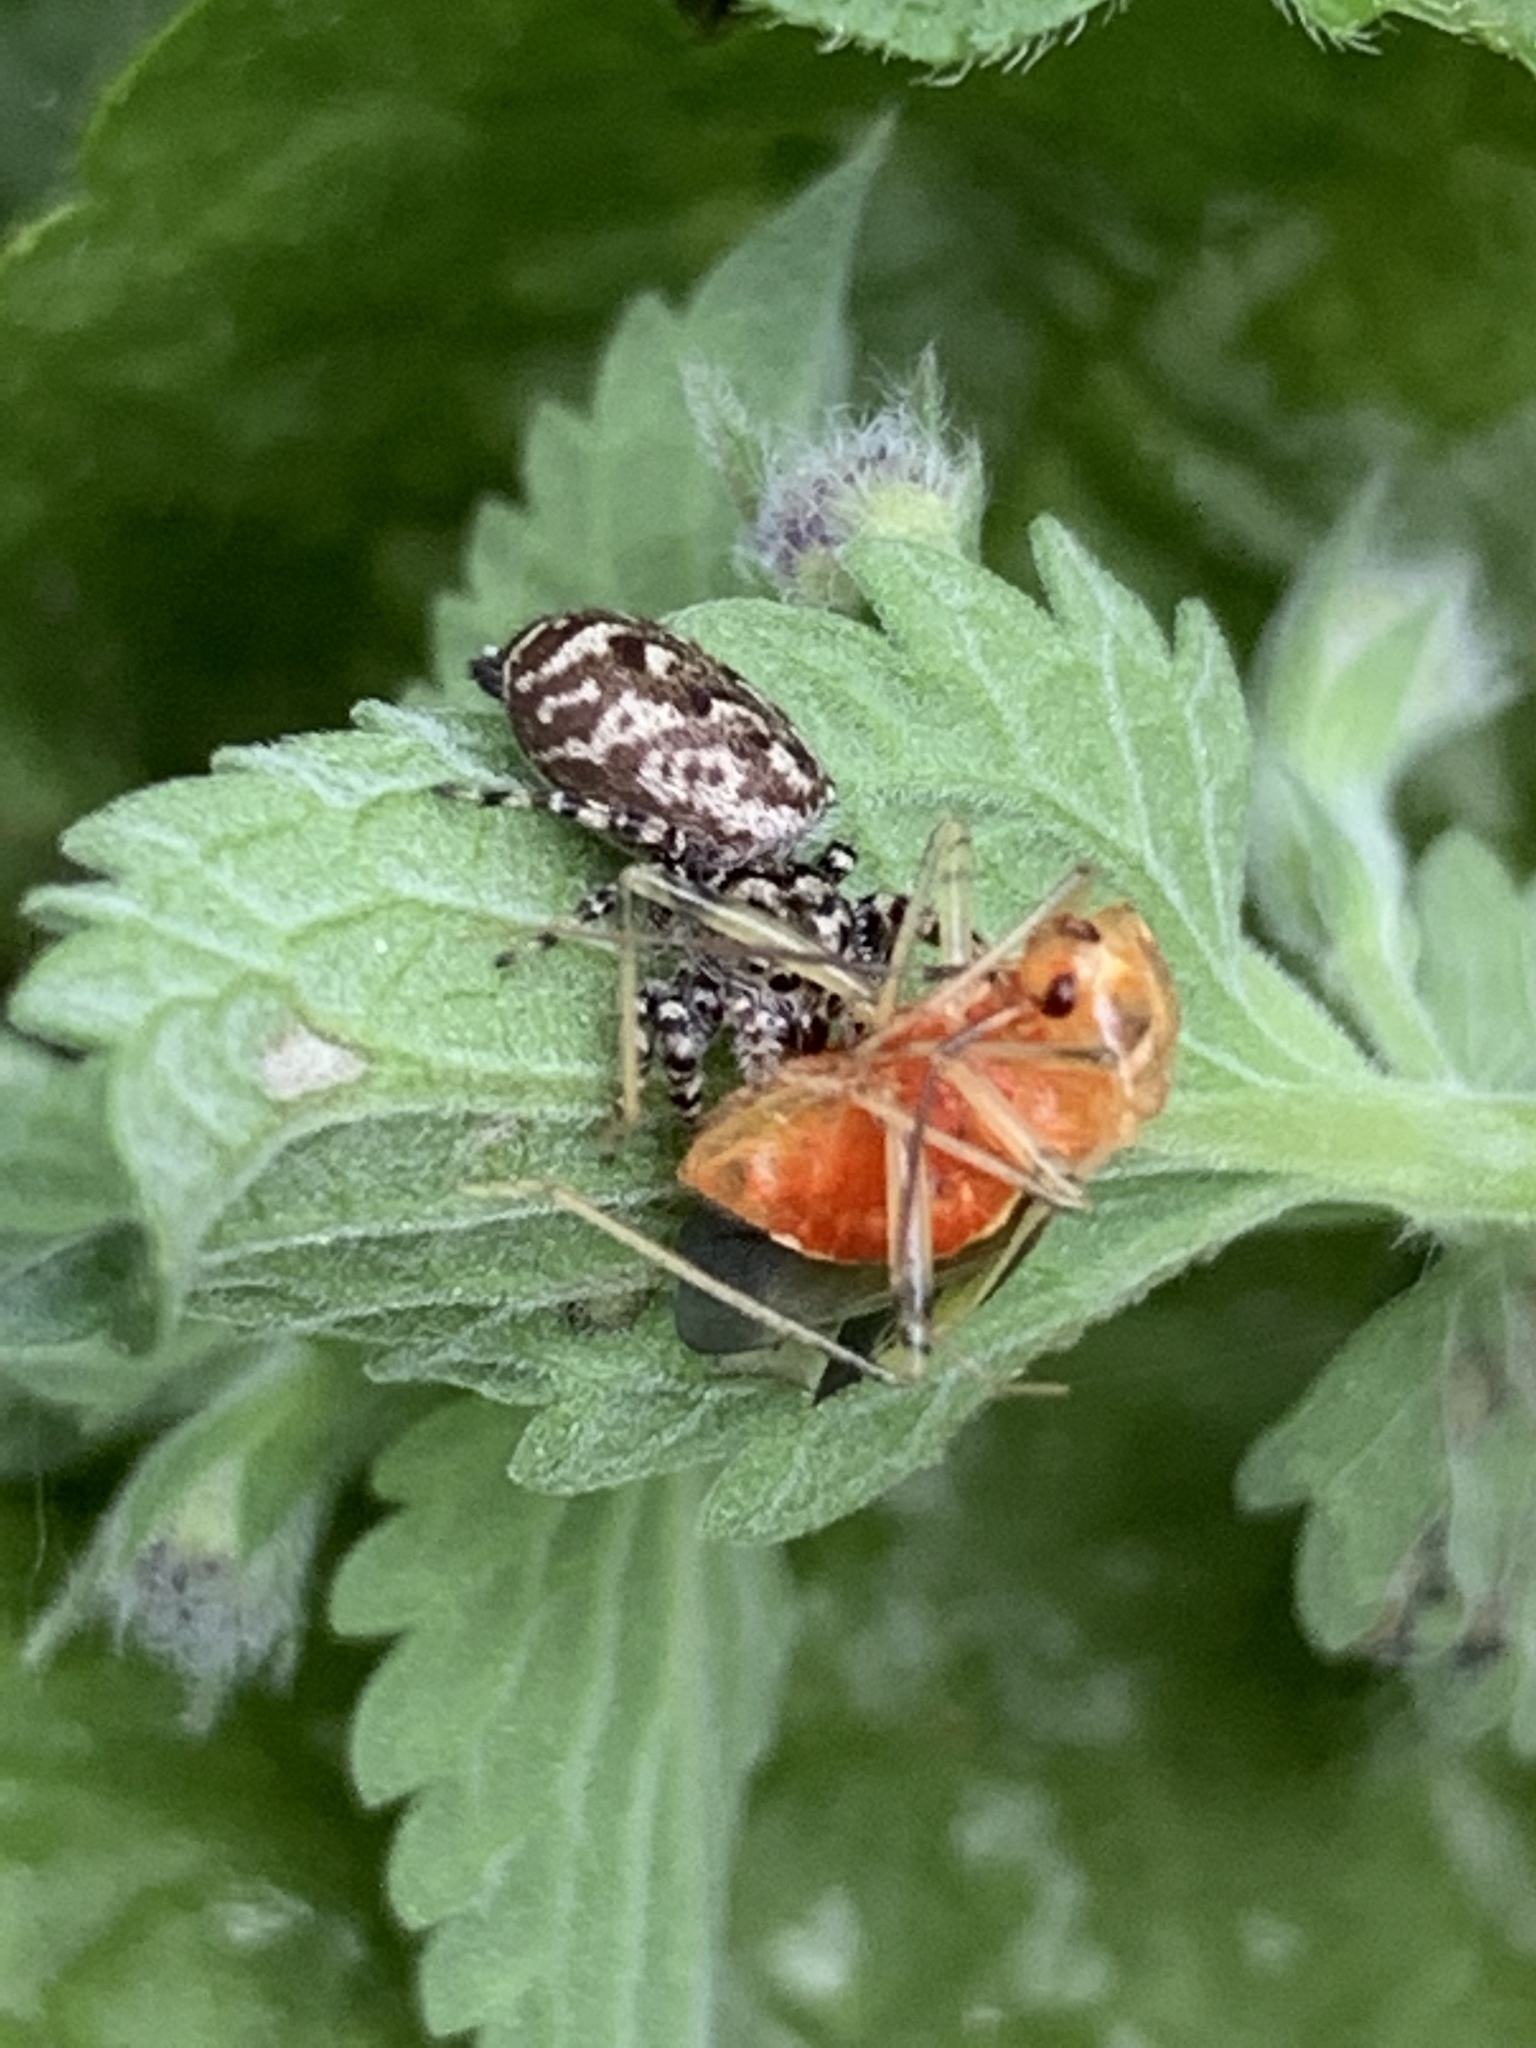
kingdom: Animalia
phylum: Arthropoda
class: Arachnida
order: Araneae
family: Salticidae
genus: Pelegrina
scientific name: Pelegrina galathea
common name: Jumping spiders
